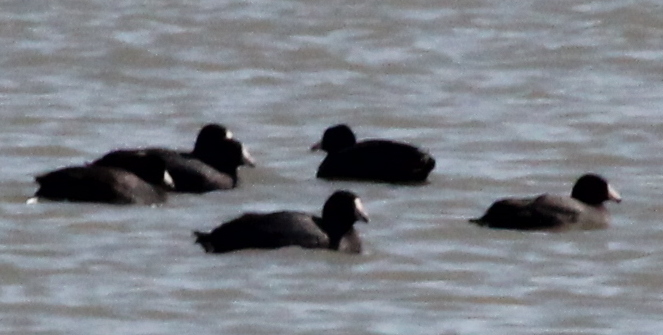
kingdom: Animalia
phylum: Chordata
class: Aves
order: Gruiformes
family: Rallidae
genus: Fulica
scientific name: Fulica americana
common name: American coot
